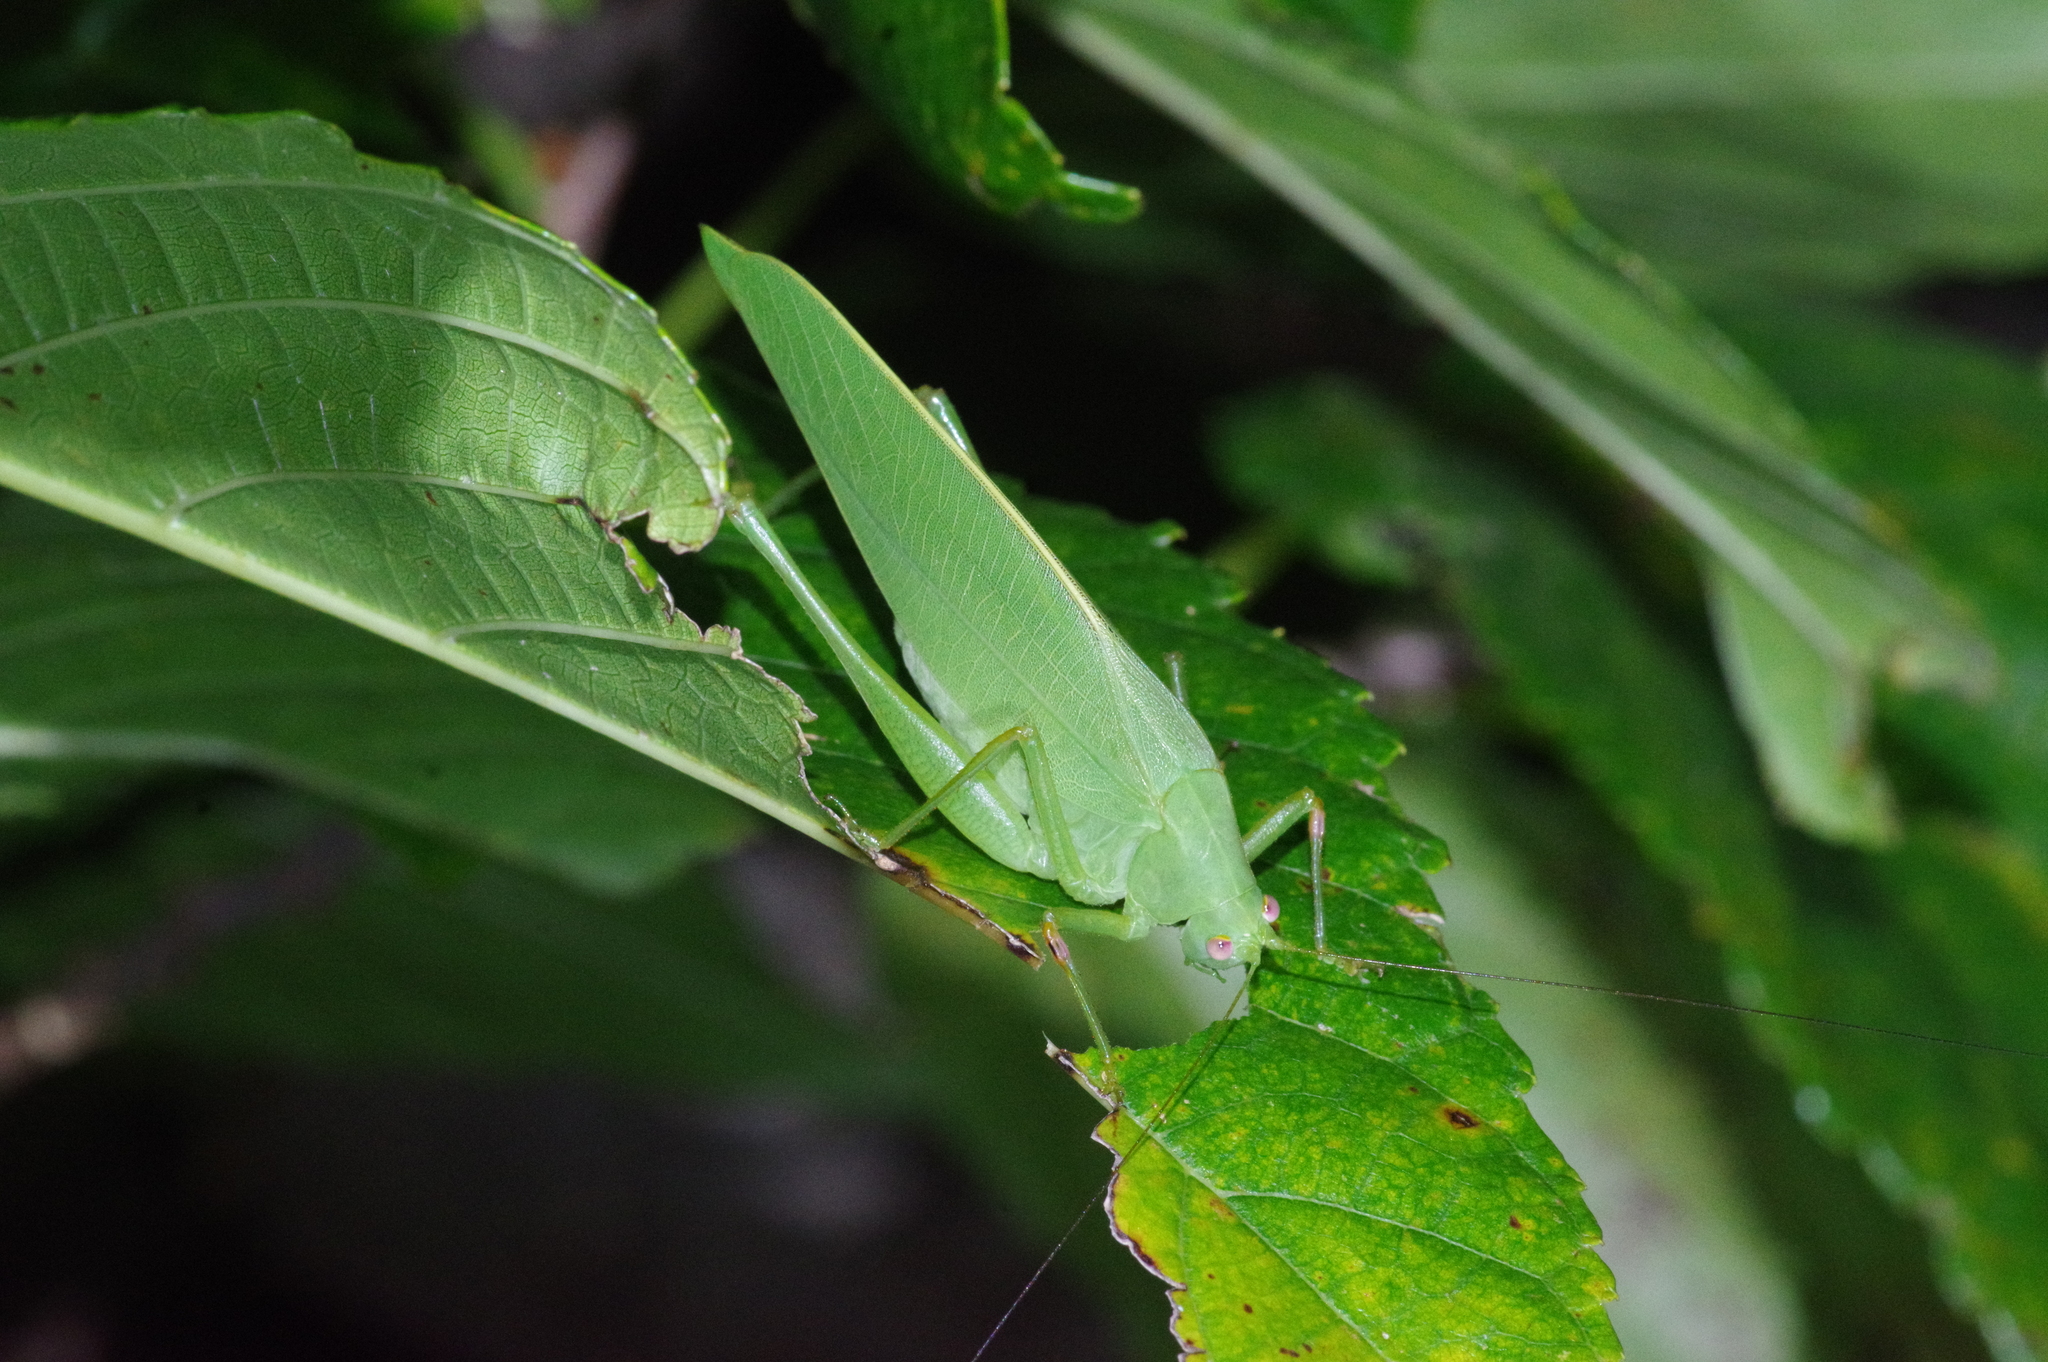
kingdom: Animalia
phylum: Arthropoda
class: Insecta
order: Orthoptera
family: Tettigoniidae
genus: Phaulula
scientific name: Phaulula daitoensis
